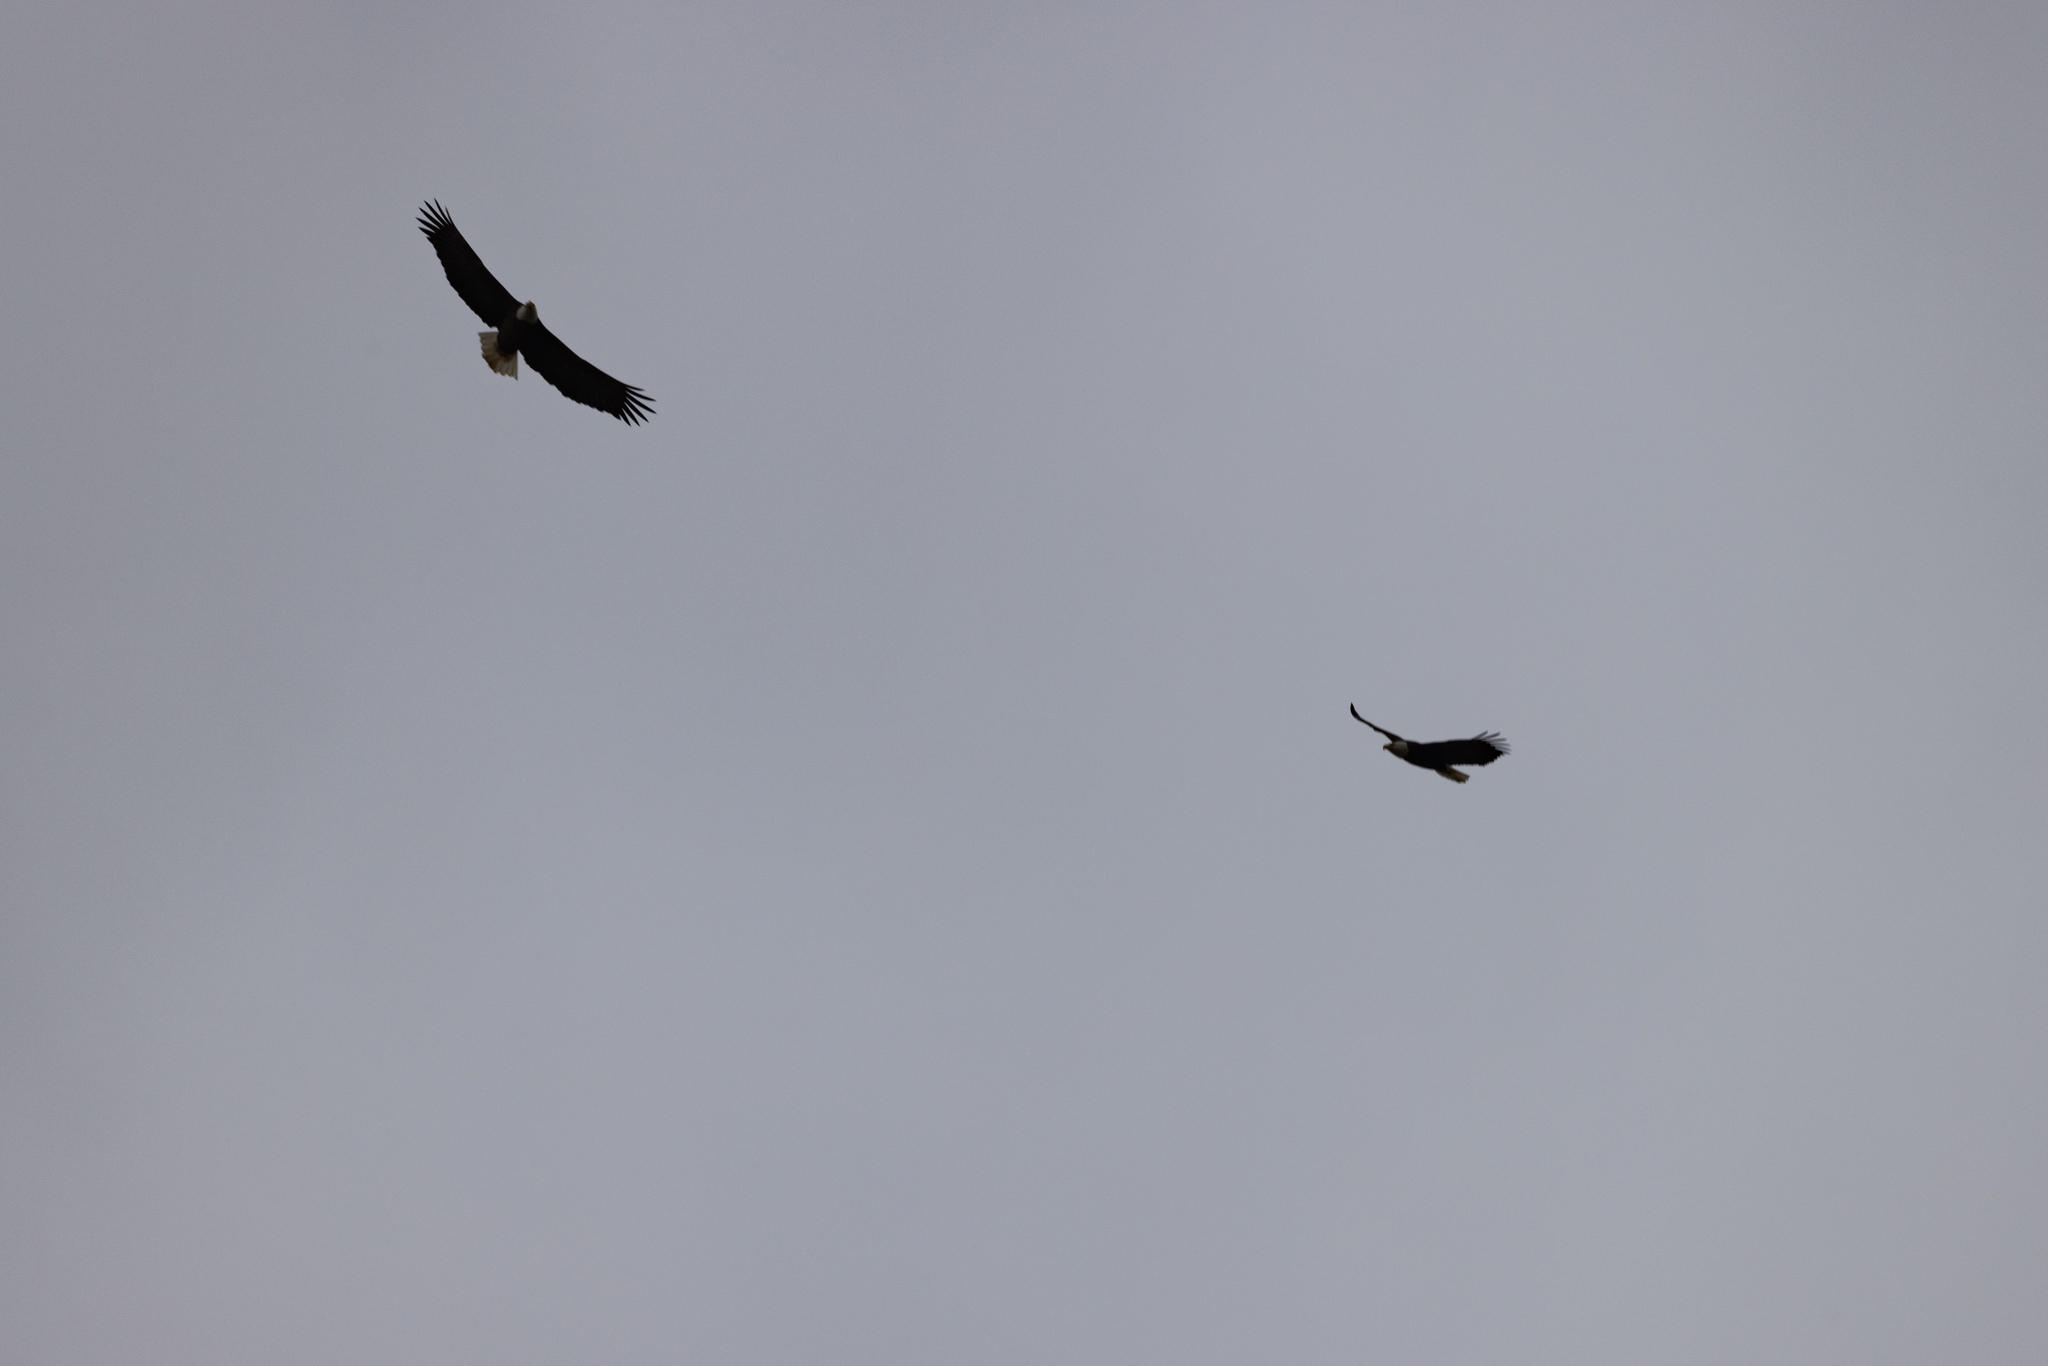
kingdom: Animalia
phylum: Chordata
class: Aves
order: Accipitriformes
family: Accipitridae
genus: Haliaeetus
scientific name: Haliaeetus leucocephalus
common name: Bald eagle
